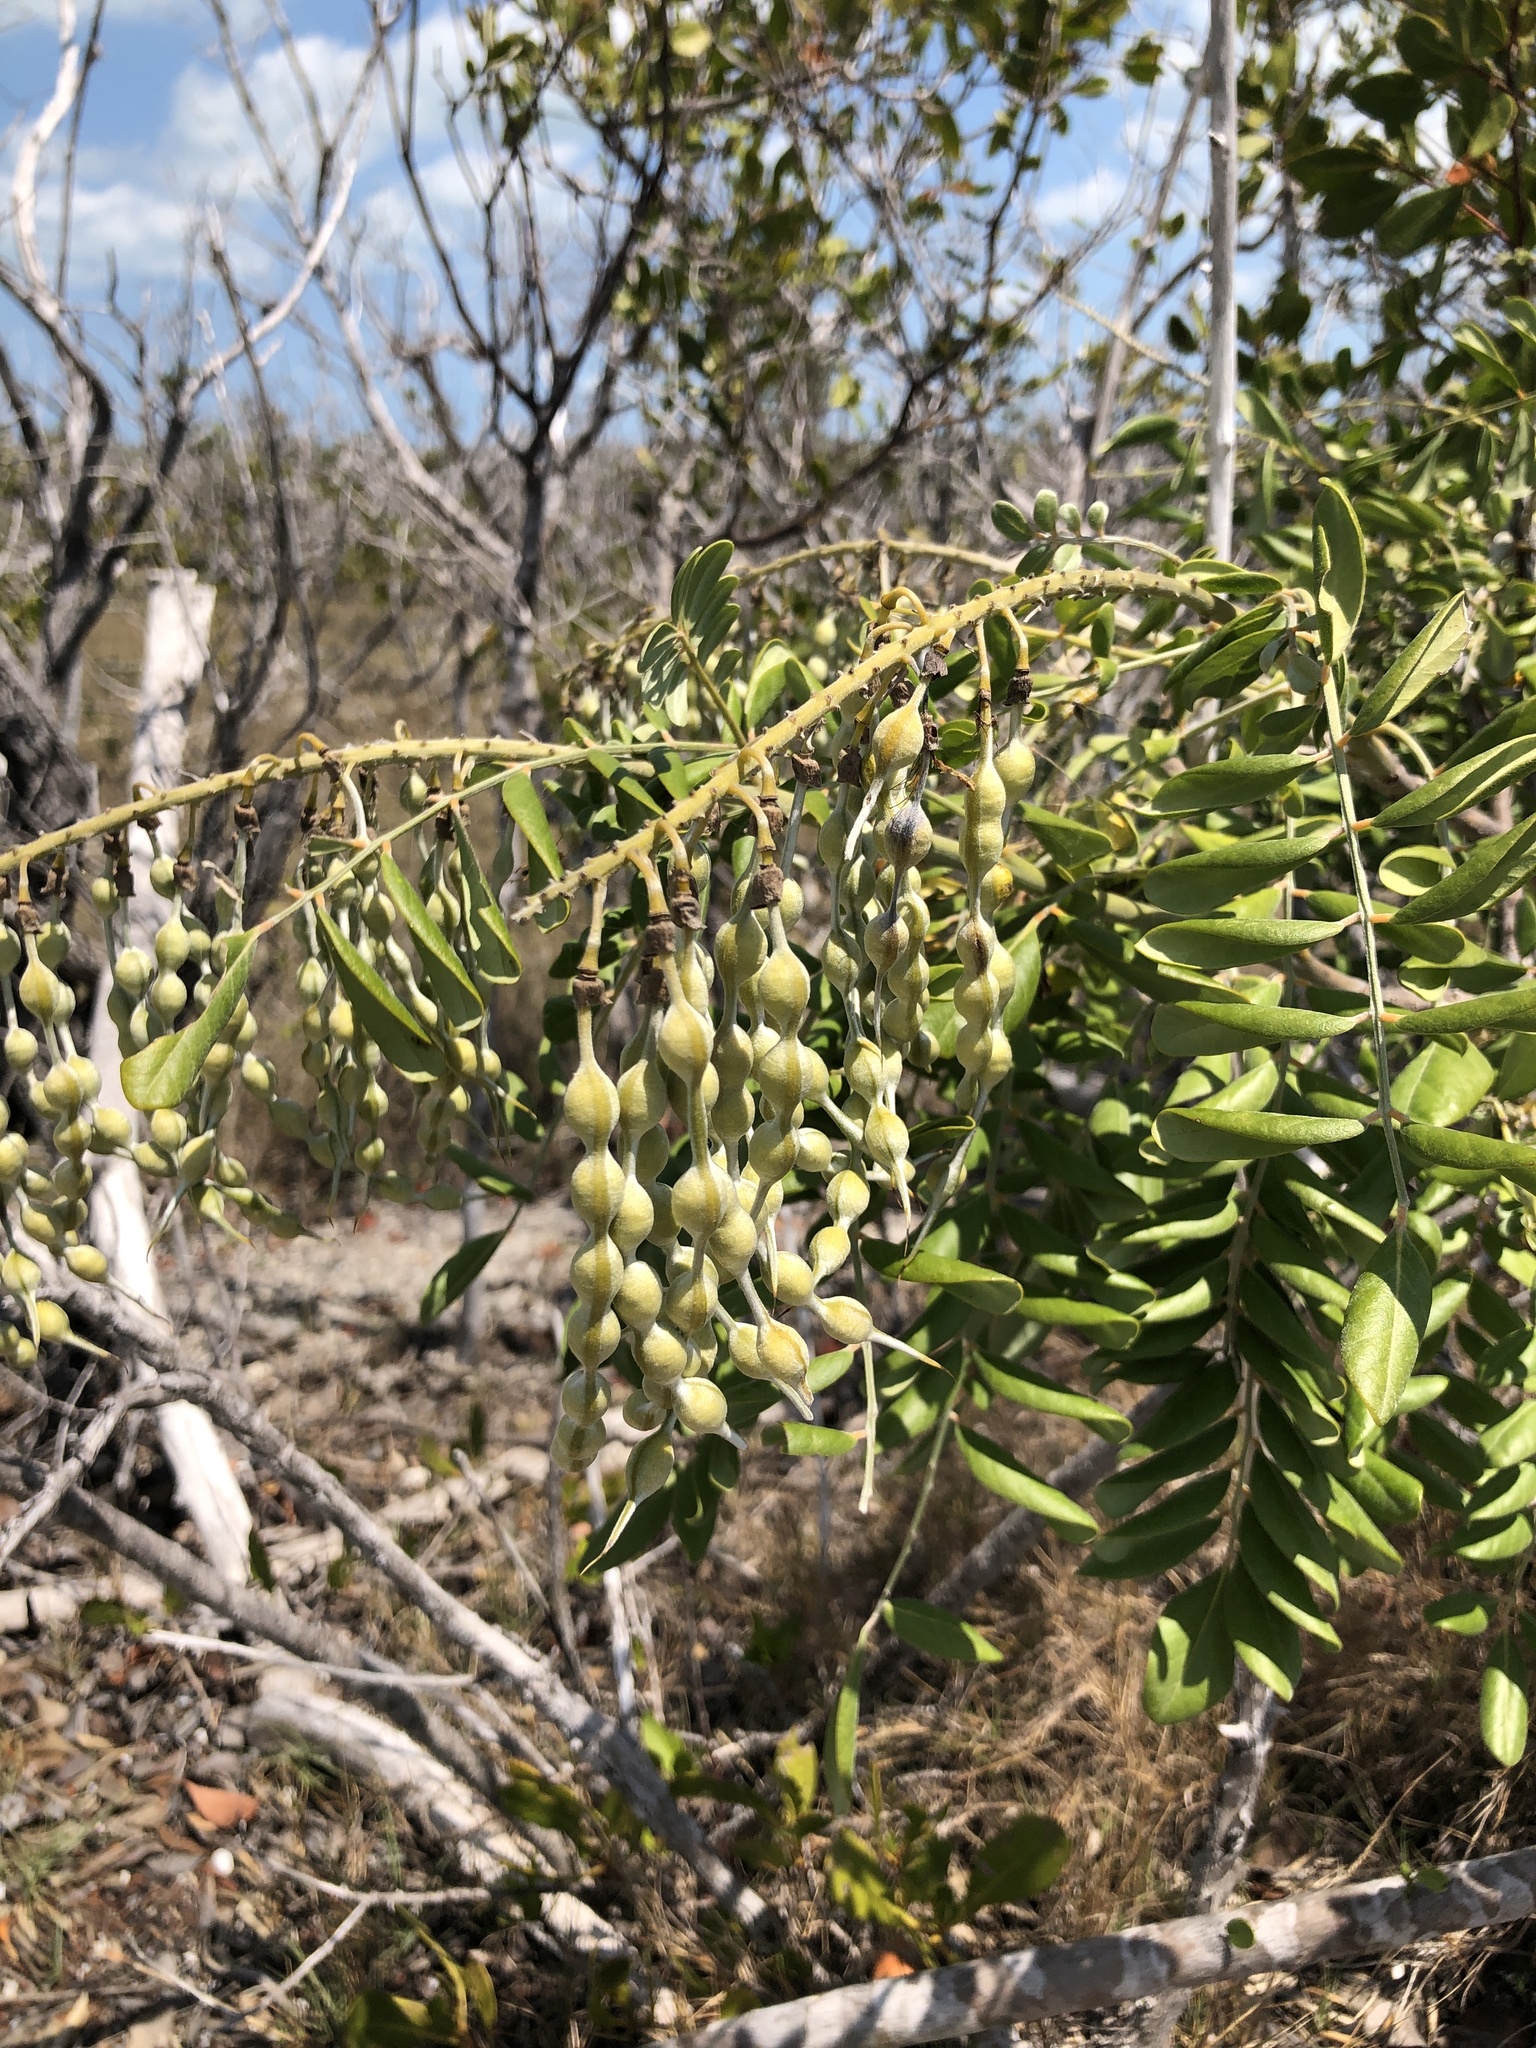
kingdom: Plantae
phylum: Tracheophyta
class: Magnoliopsida
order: Fabales
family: Fabaceae
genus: Sophora
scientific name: Sophora tomentosa
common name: Yellow necklacepod
